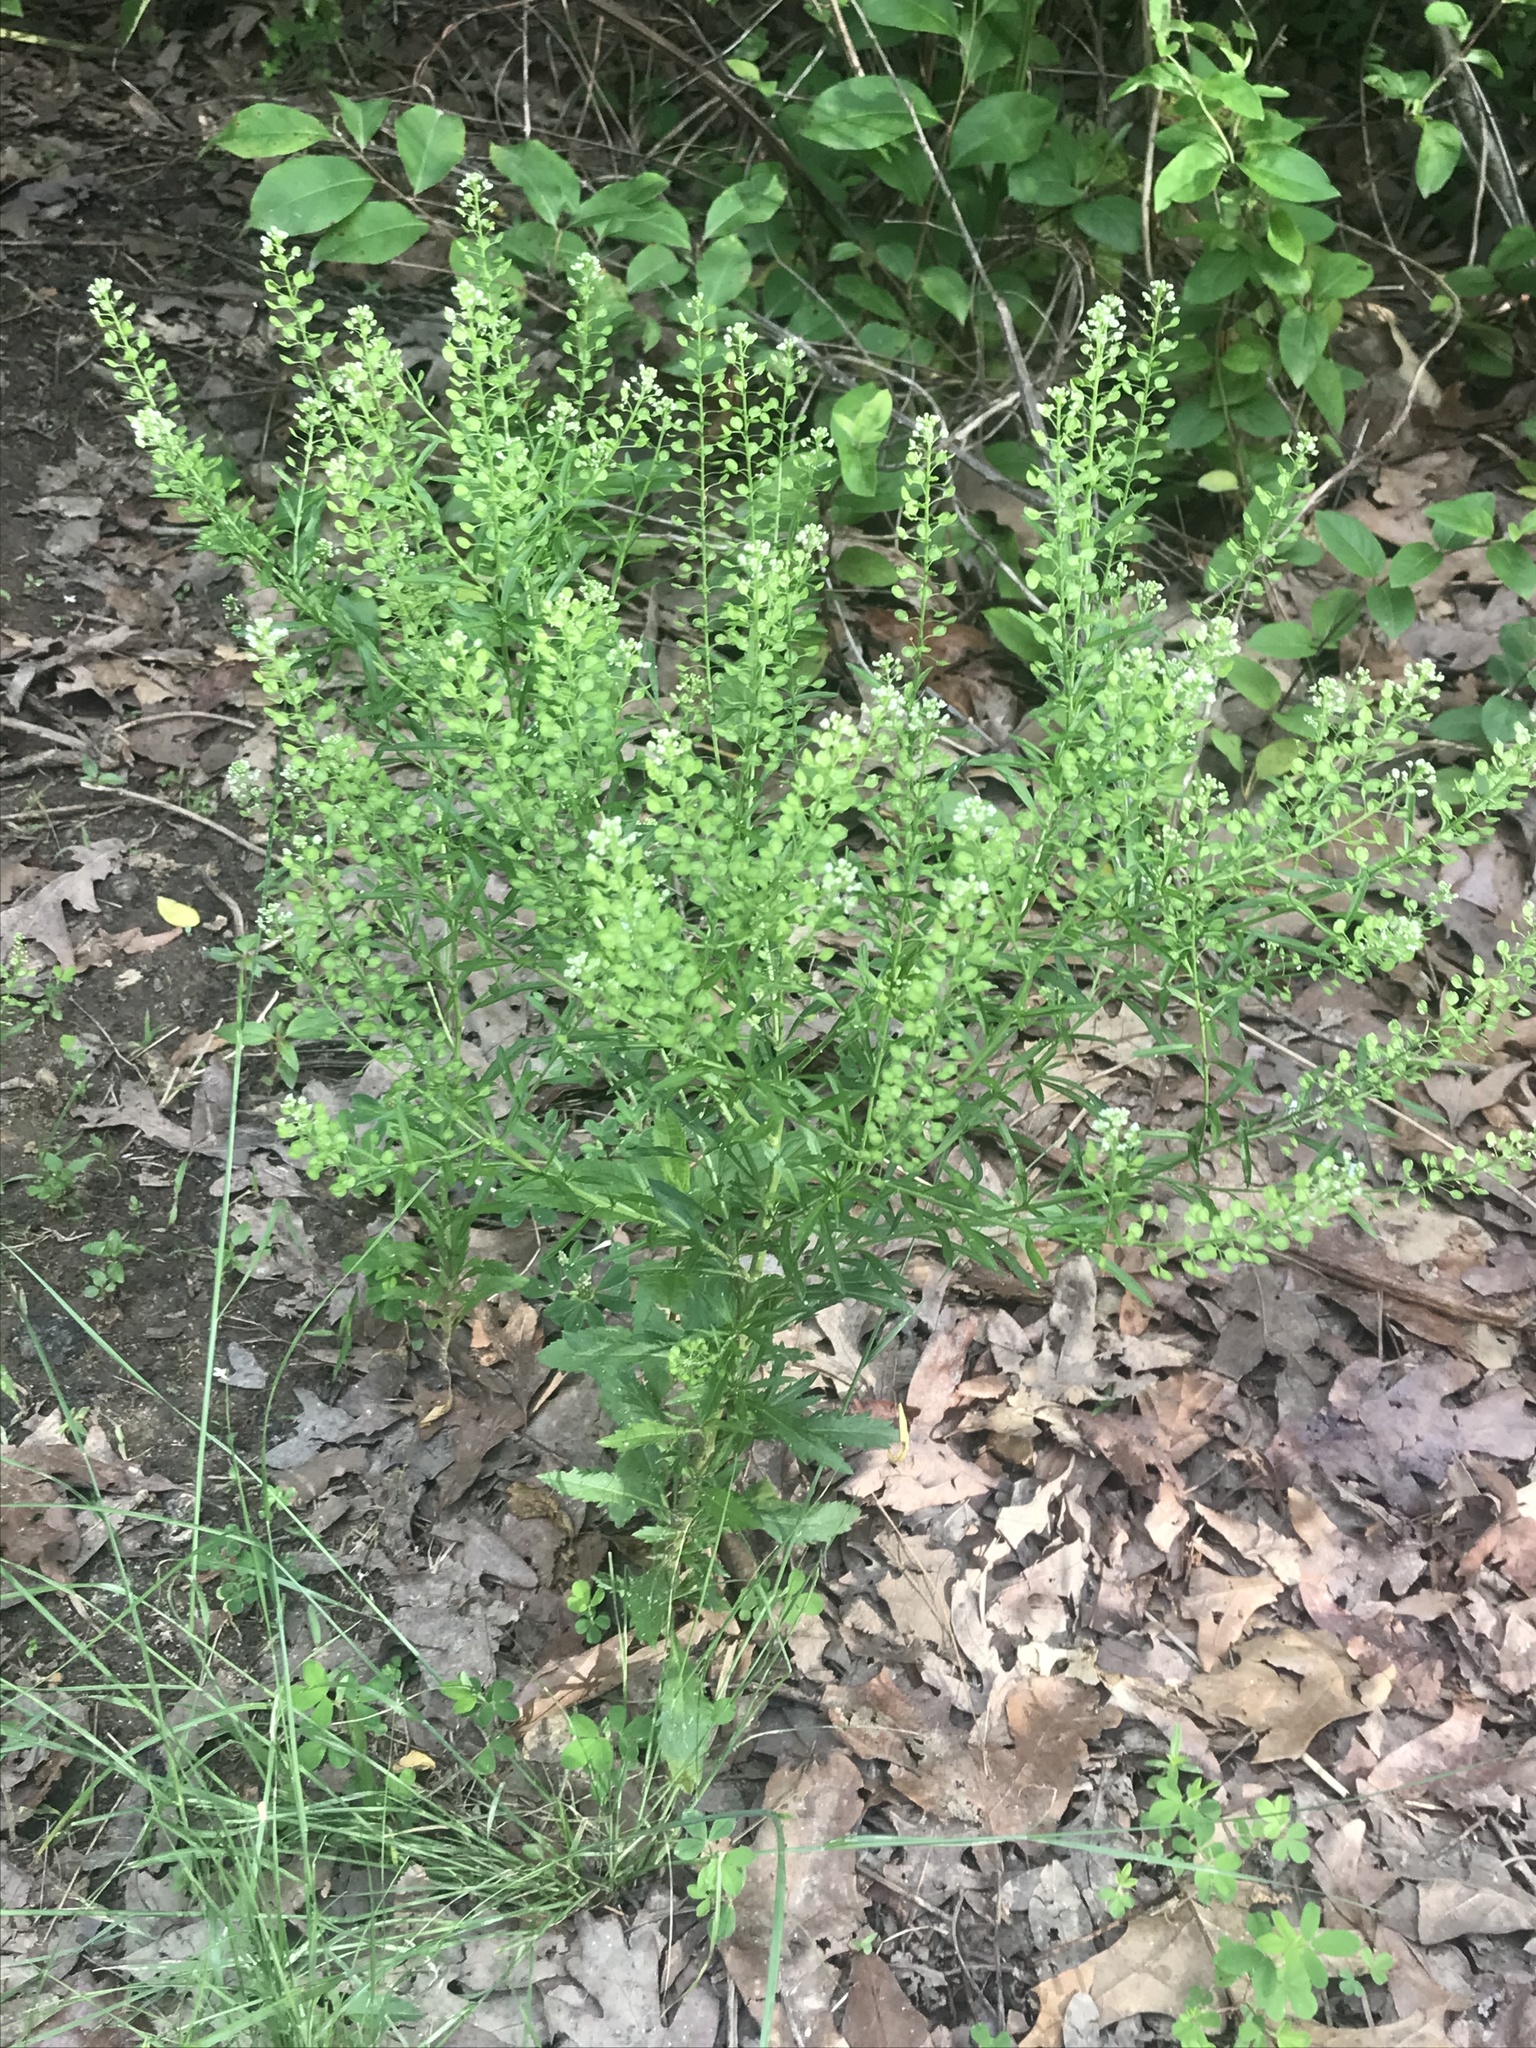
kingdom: Plantae
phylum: Tracheophyta
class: Magnoliopsida
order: Brassicales
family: Brassicaceae
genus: Lepidium
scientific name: Lepidium virginicum
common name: Least pepperwort
